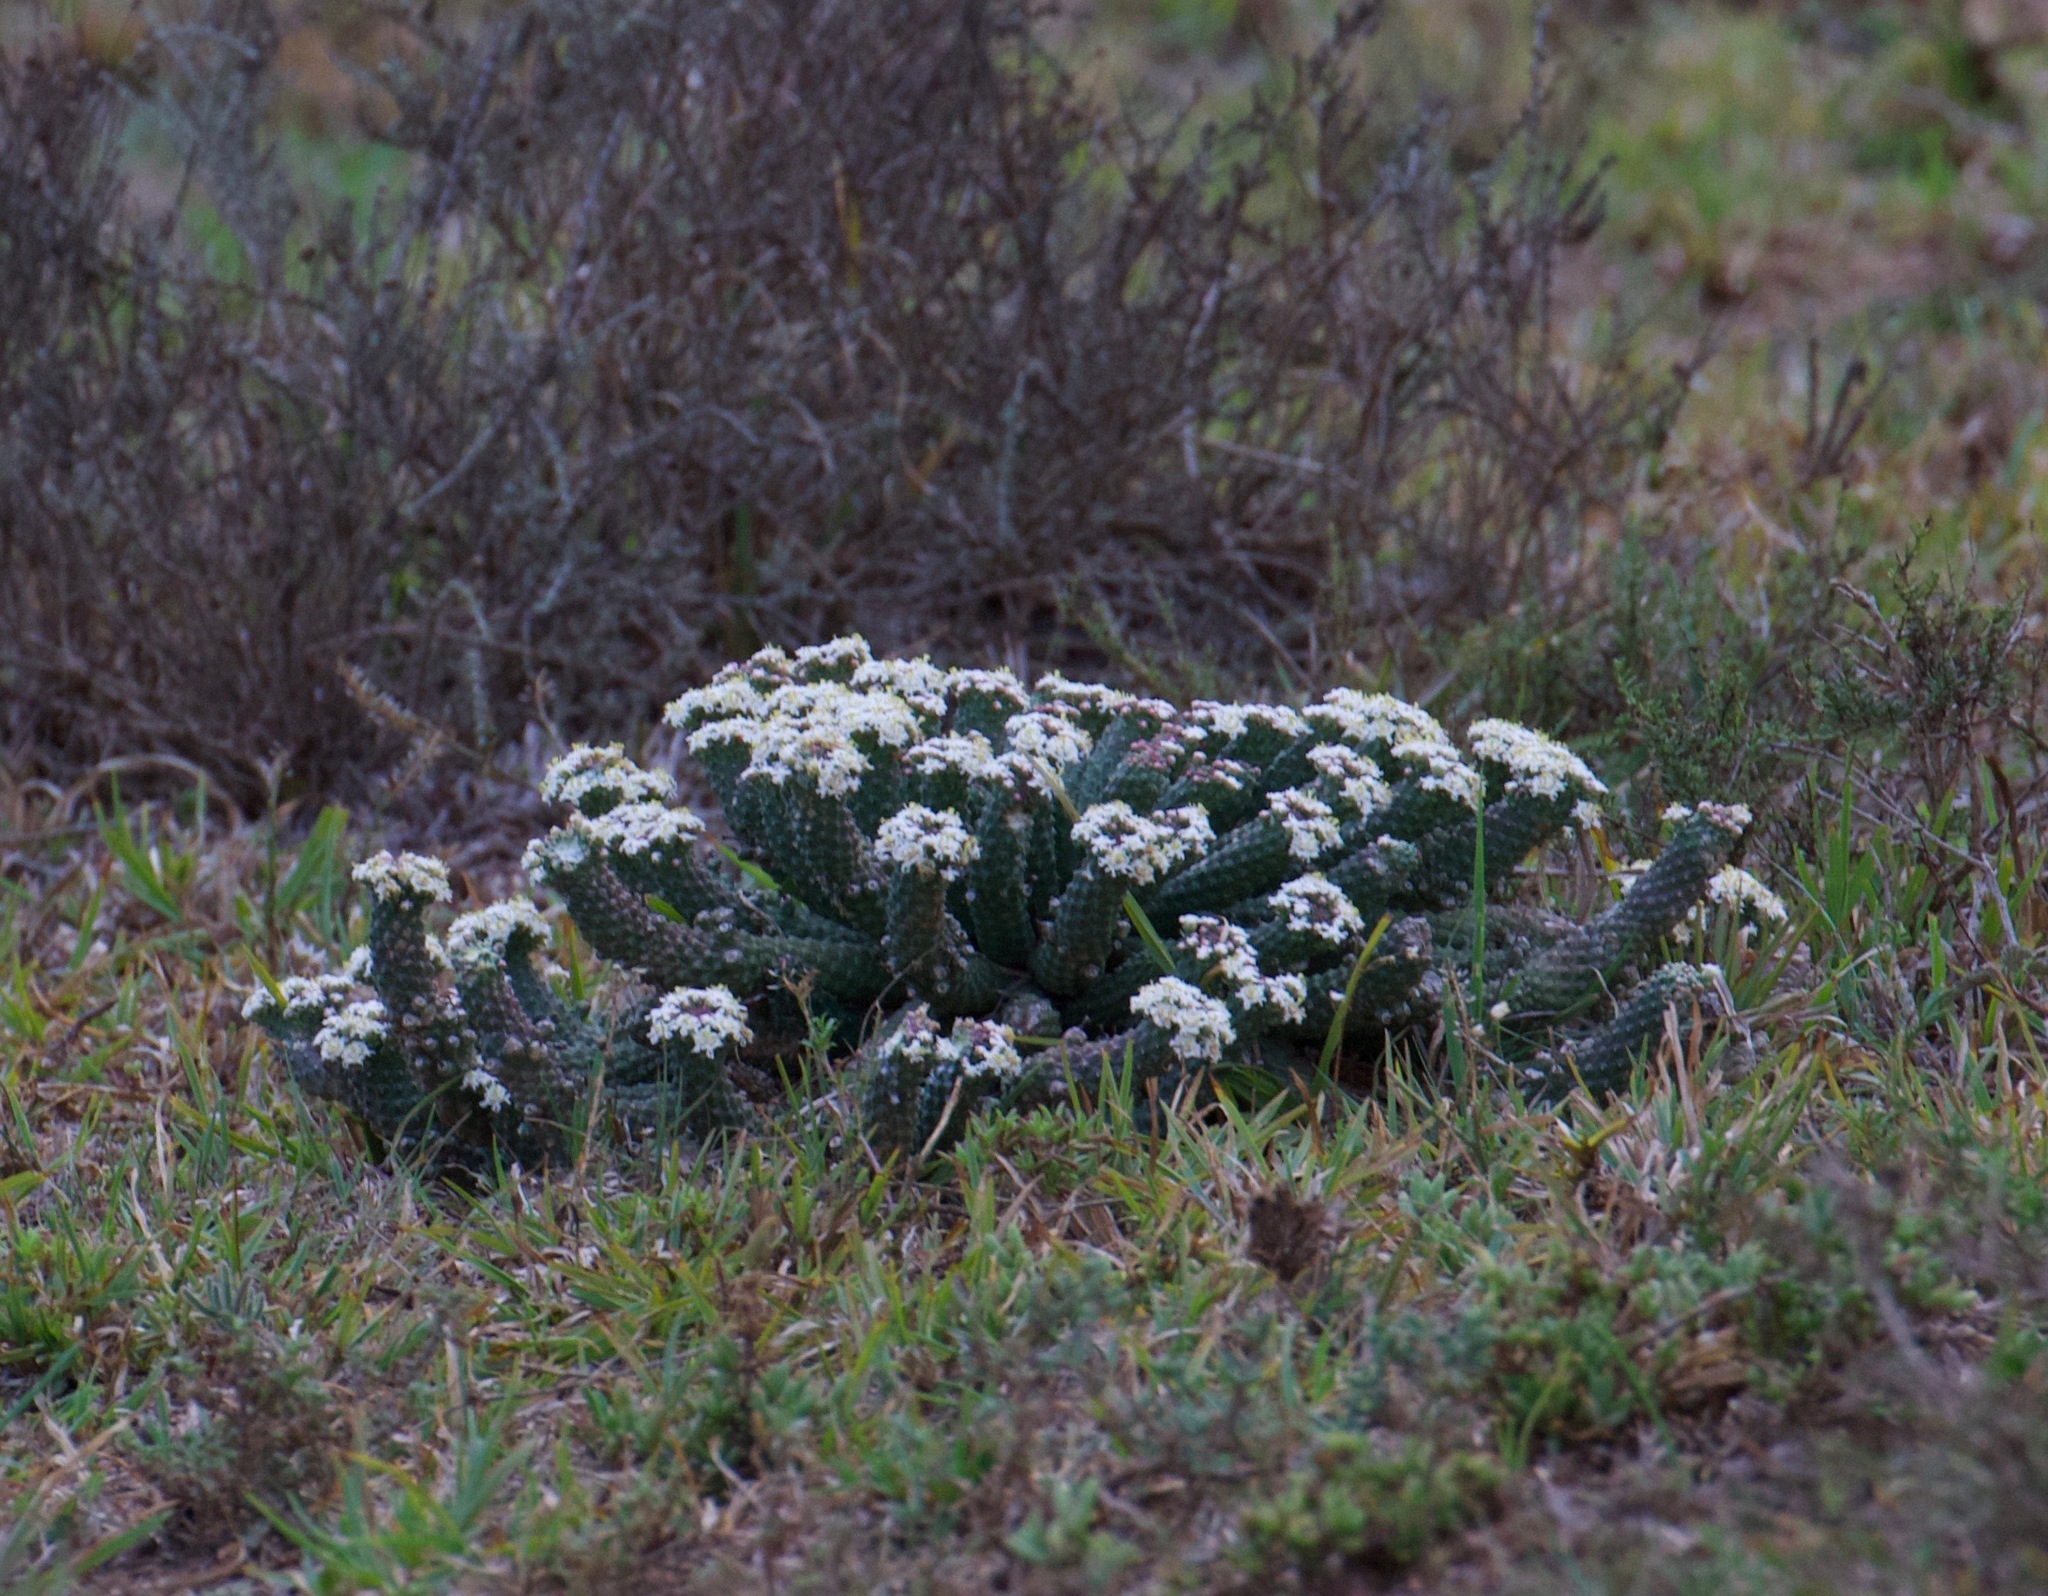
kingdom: Plantae
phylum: Tracheophyta
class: Magnoliopsida
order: Malpighiales
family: Euphorbiaceae
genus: Euphorbia
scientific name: Euphorbia inermis
